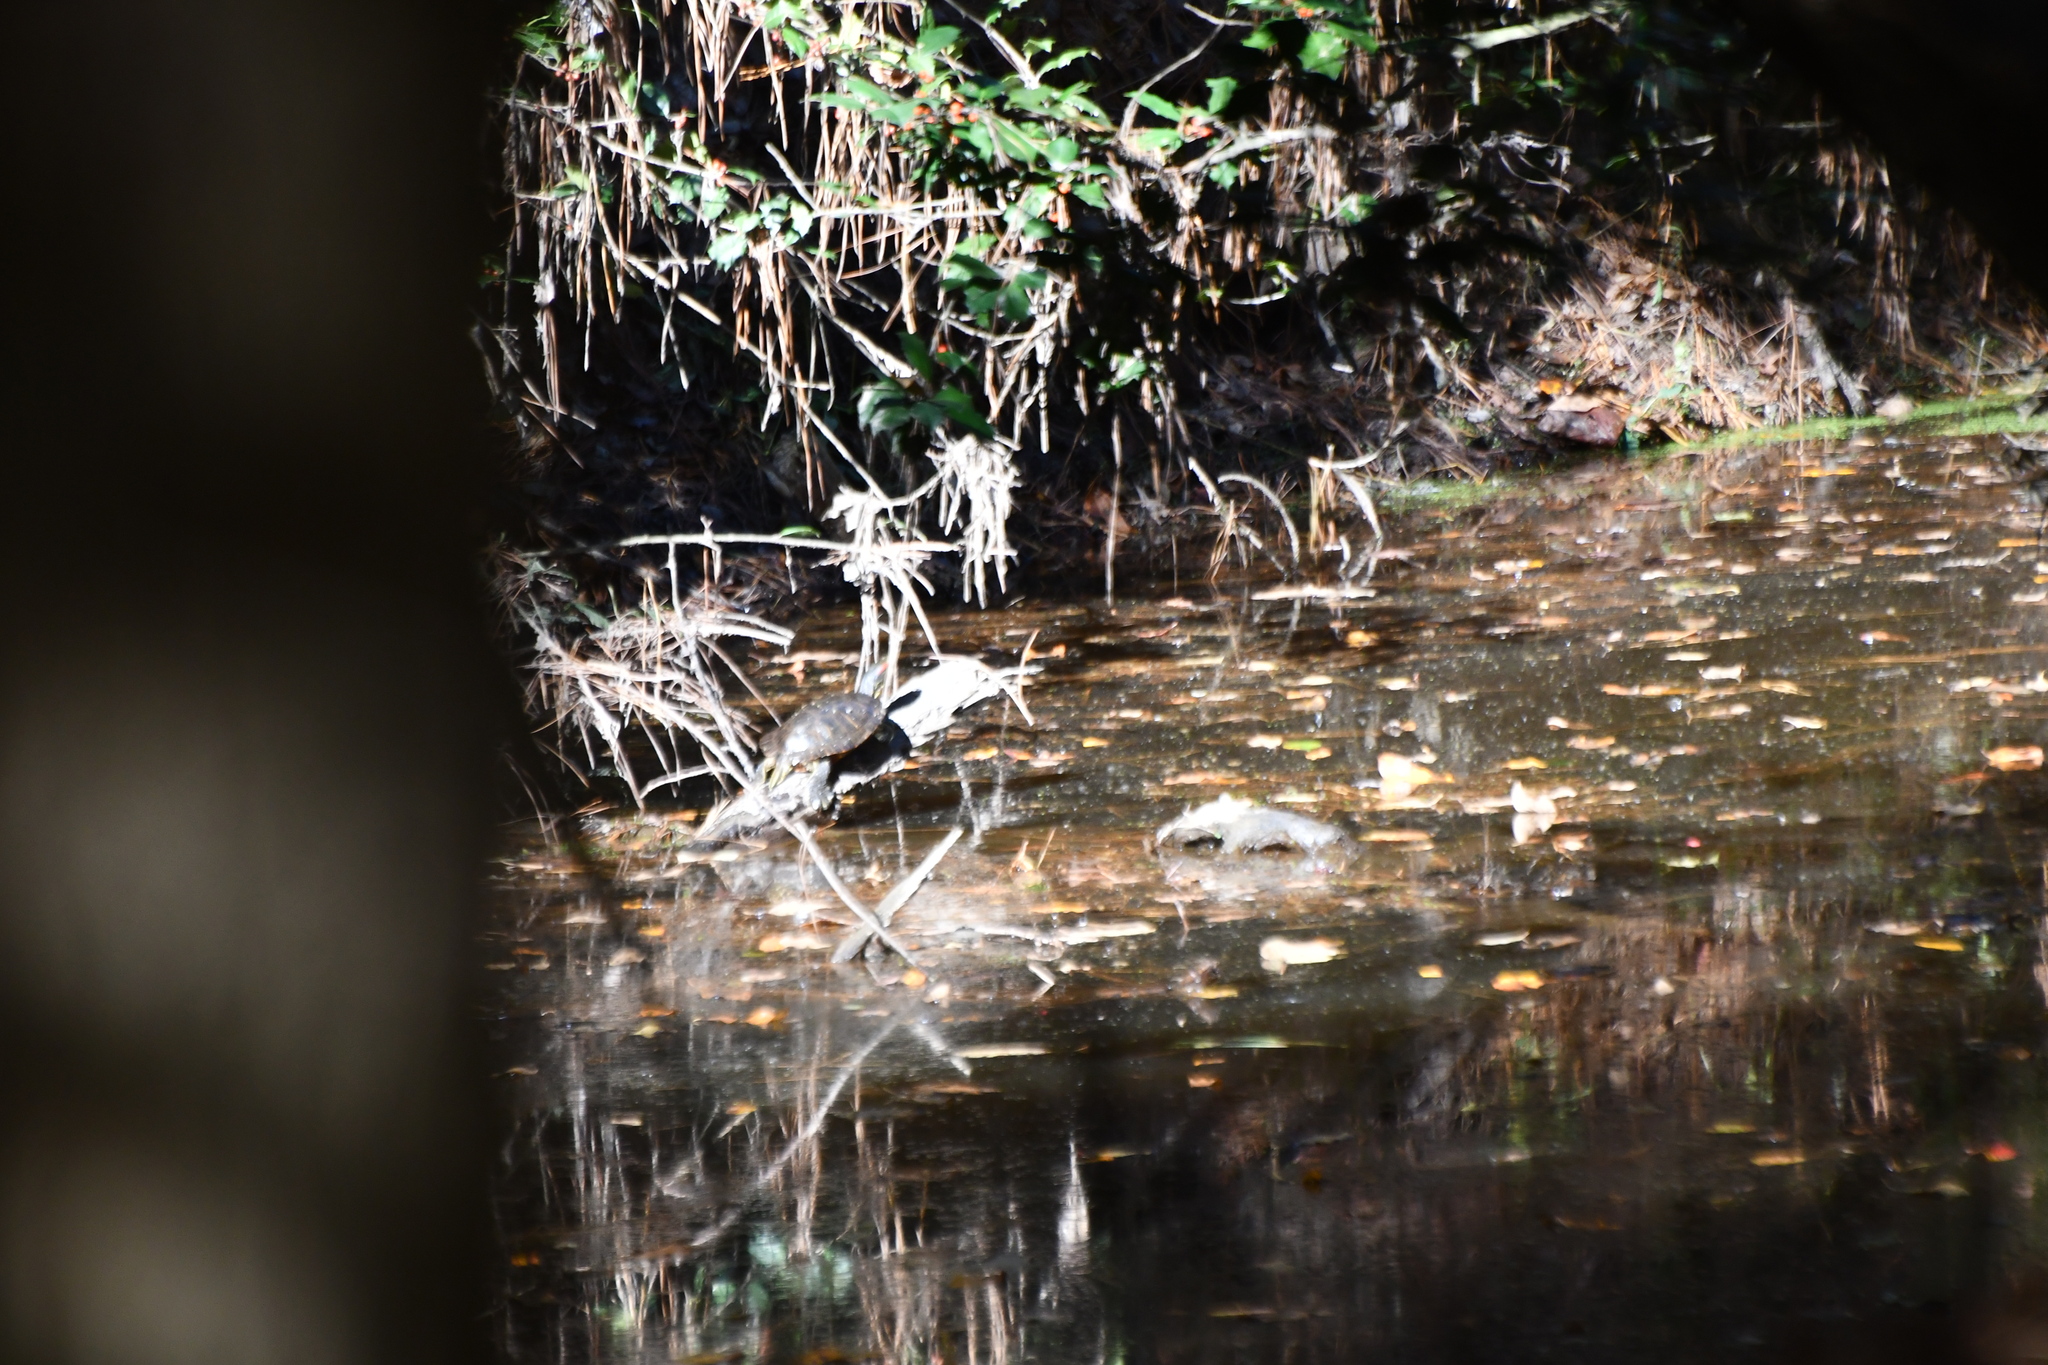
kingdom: Animalia
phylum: Chordata
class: Testudines
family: Emydidae
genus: Trachemys
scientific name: Trachemys scripta
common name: Slider
